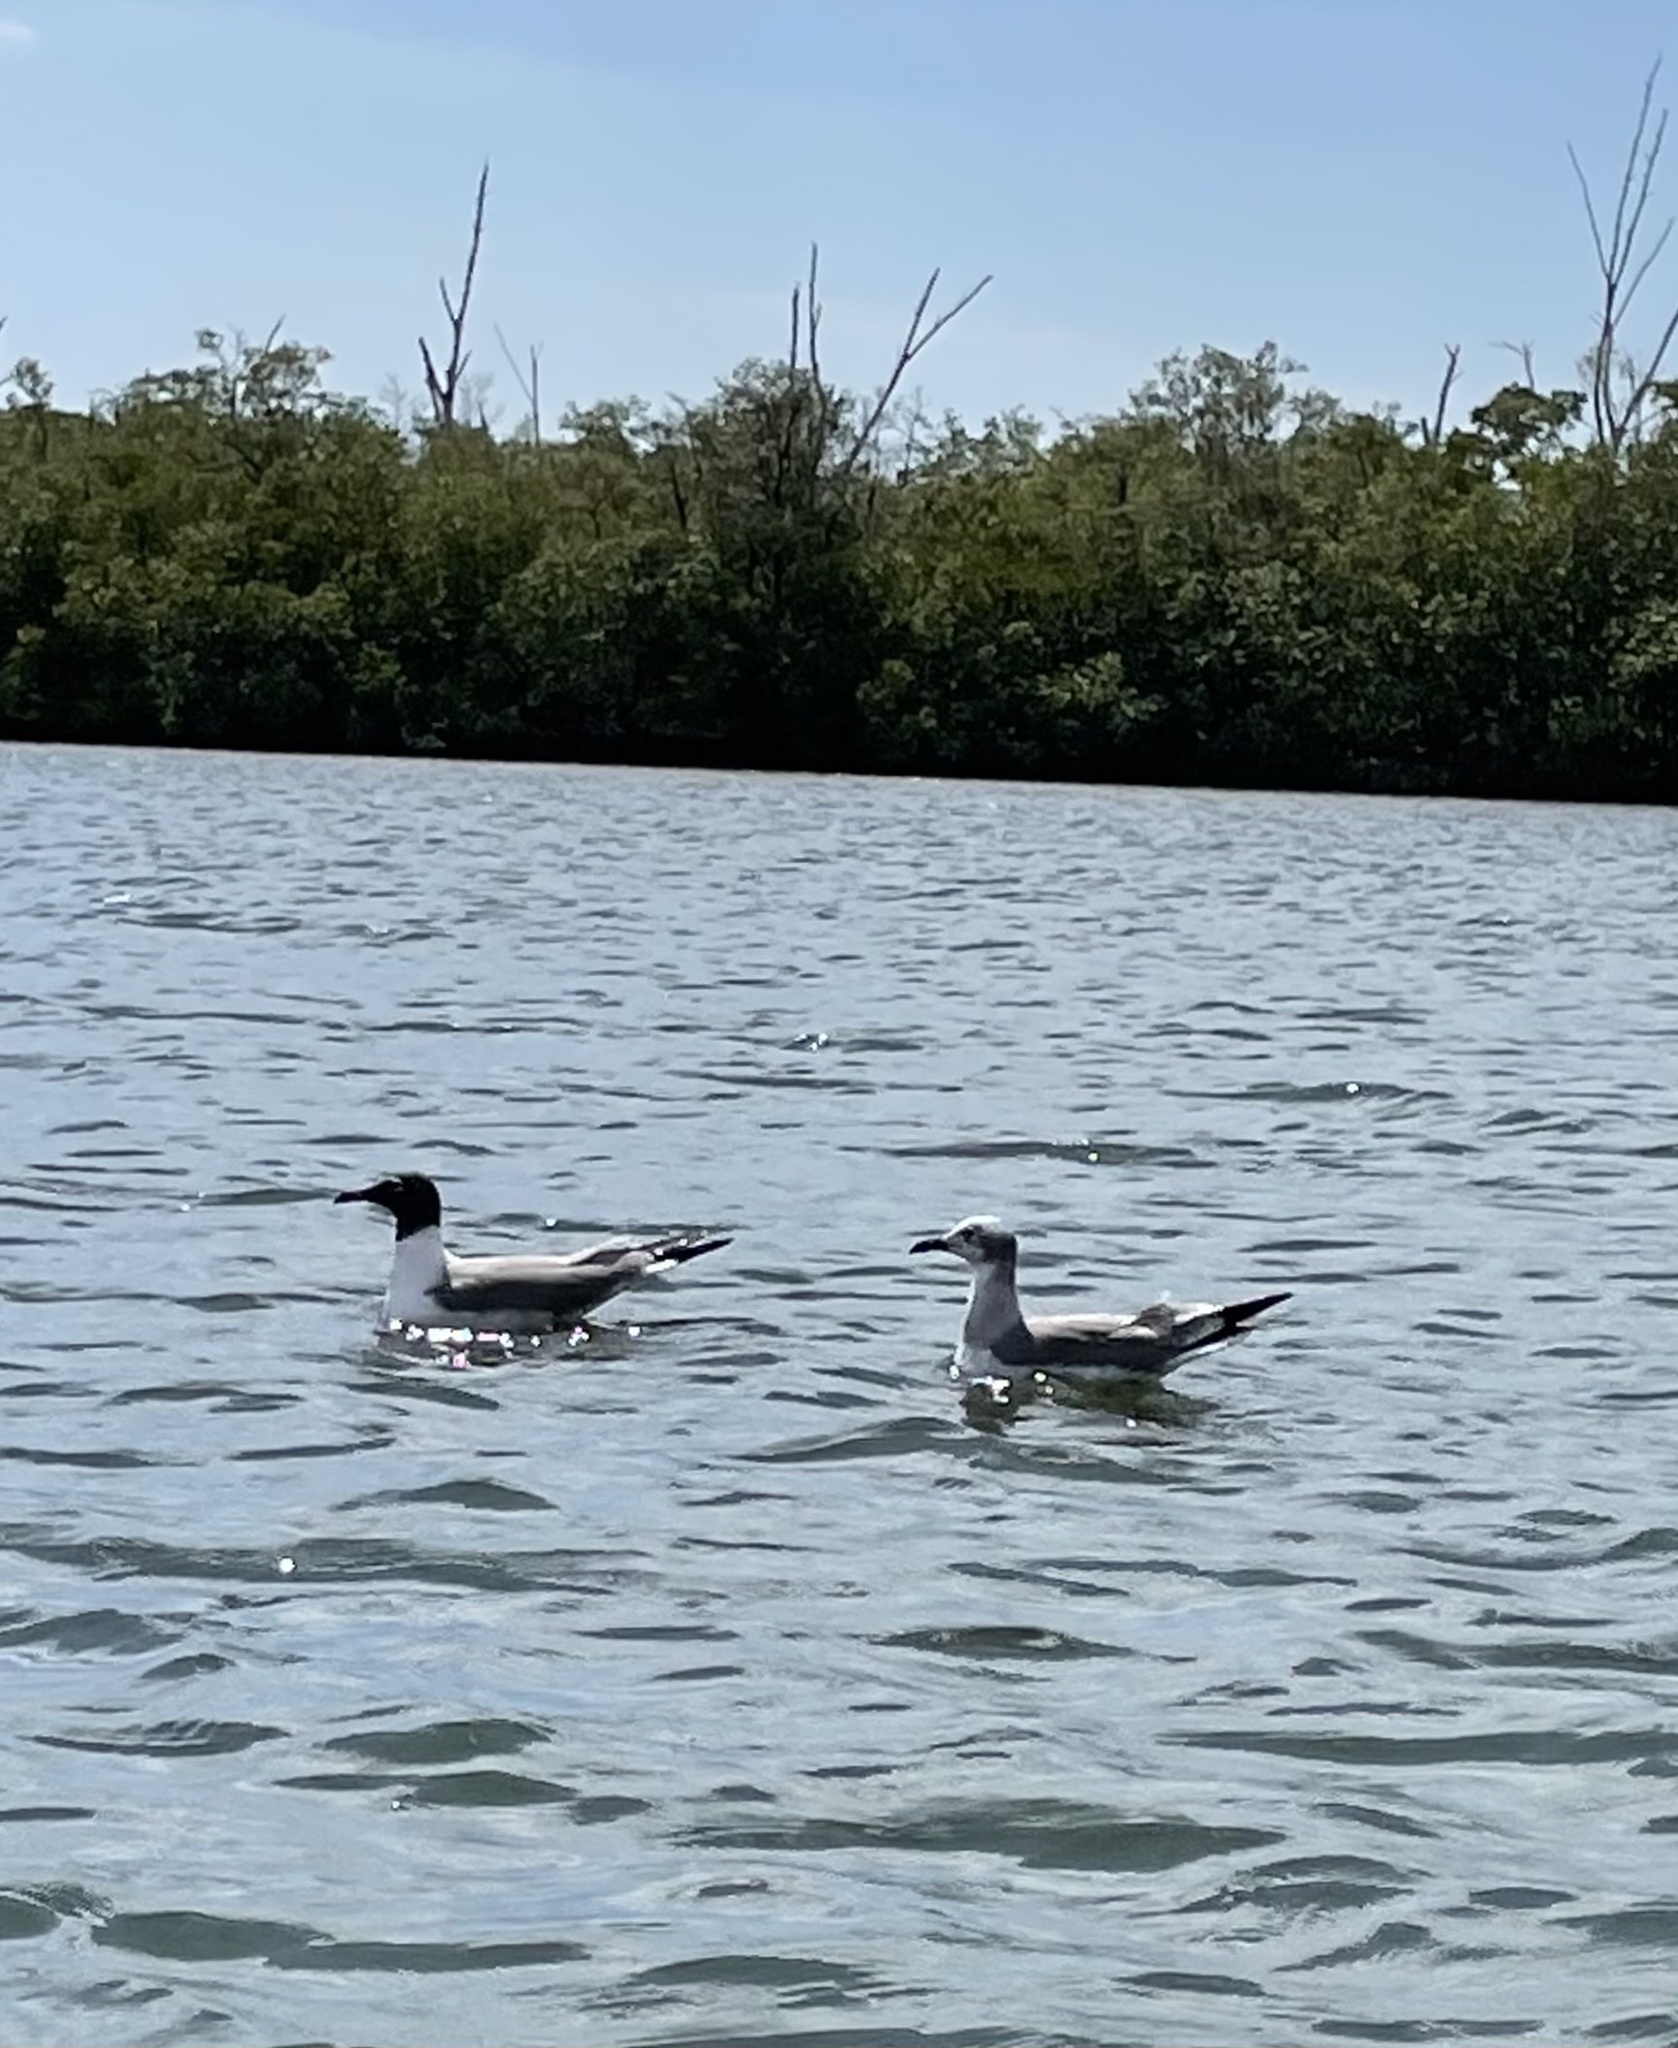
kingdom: Animalia
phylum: Chordata
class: Aves
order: Charadriiformes
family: Laridae
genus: Leucophaeus
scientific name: Leucophaeus atricilla
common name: Laughing gull
